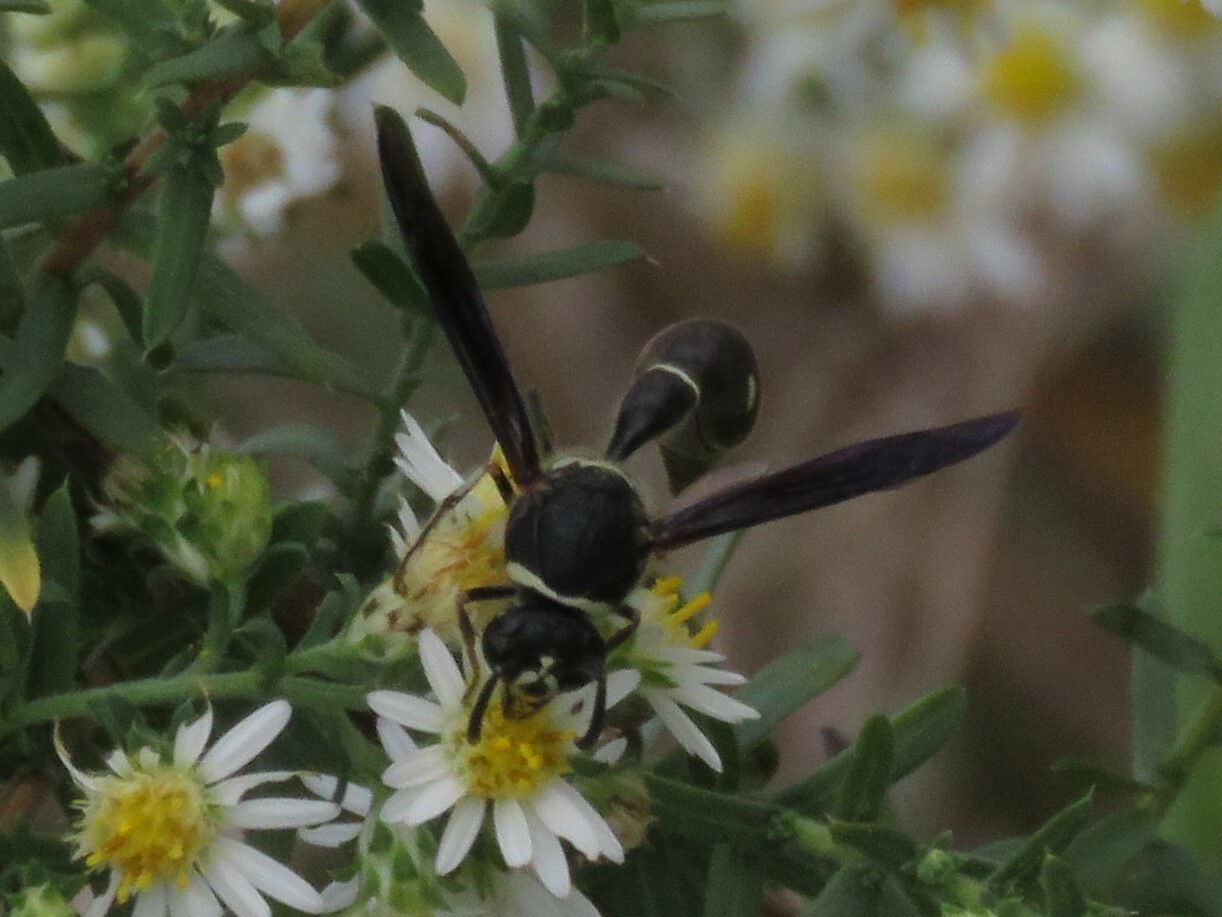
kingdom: Animalia
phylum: Arthropoda
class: Insecta
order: Hymenoptera
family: Vespidae
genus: Eumenes
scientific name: Eumenes fraternus
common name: Fraternal potter wasp
